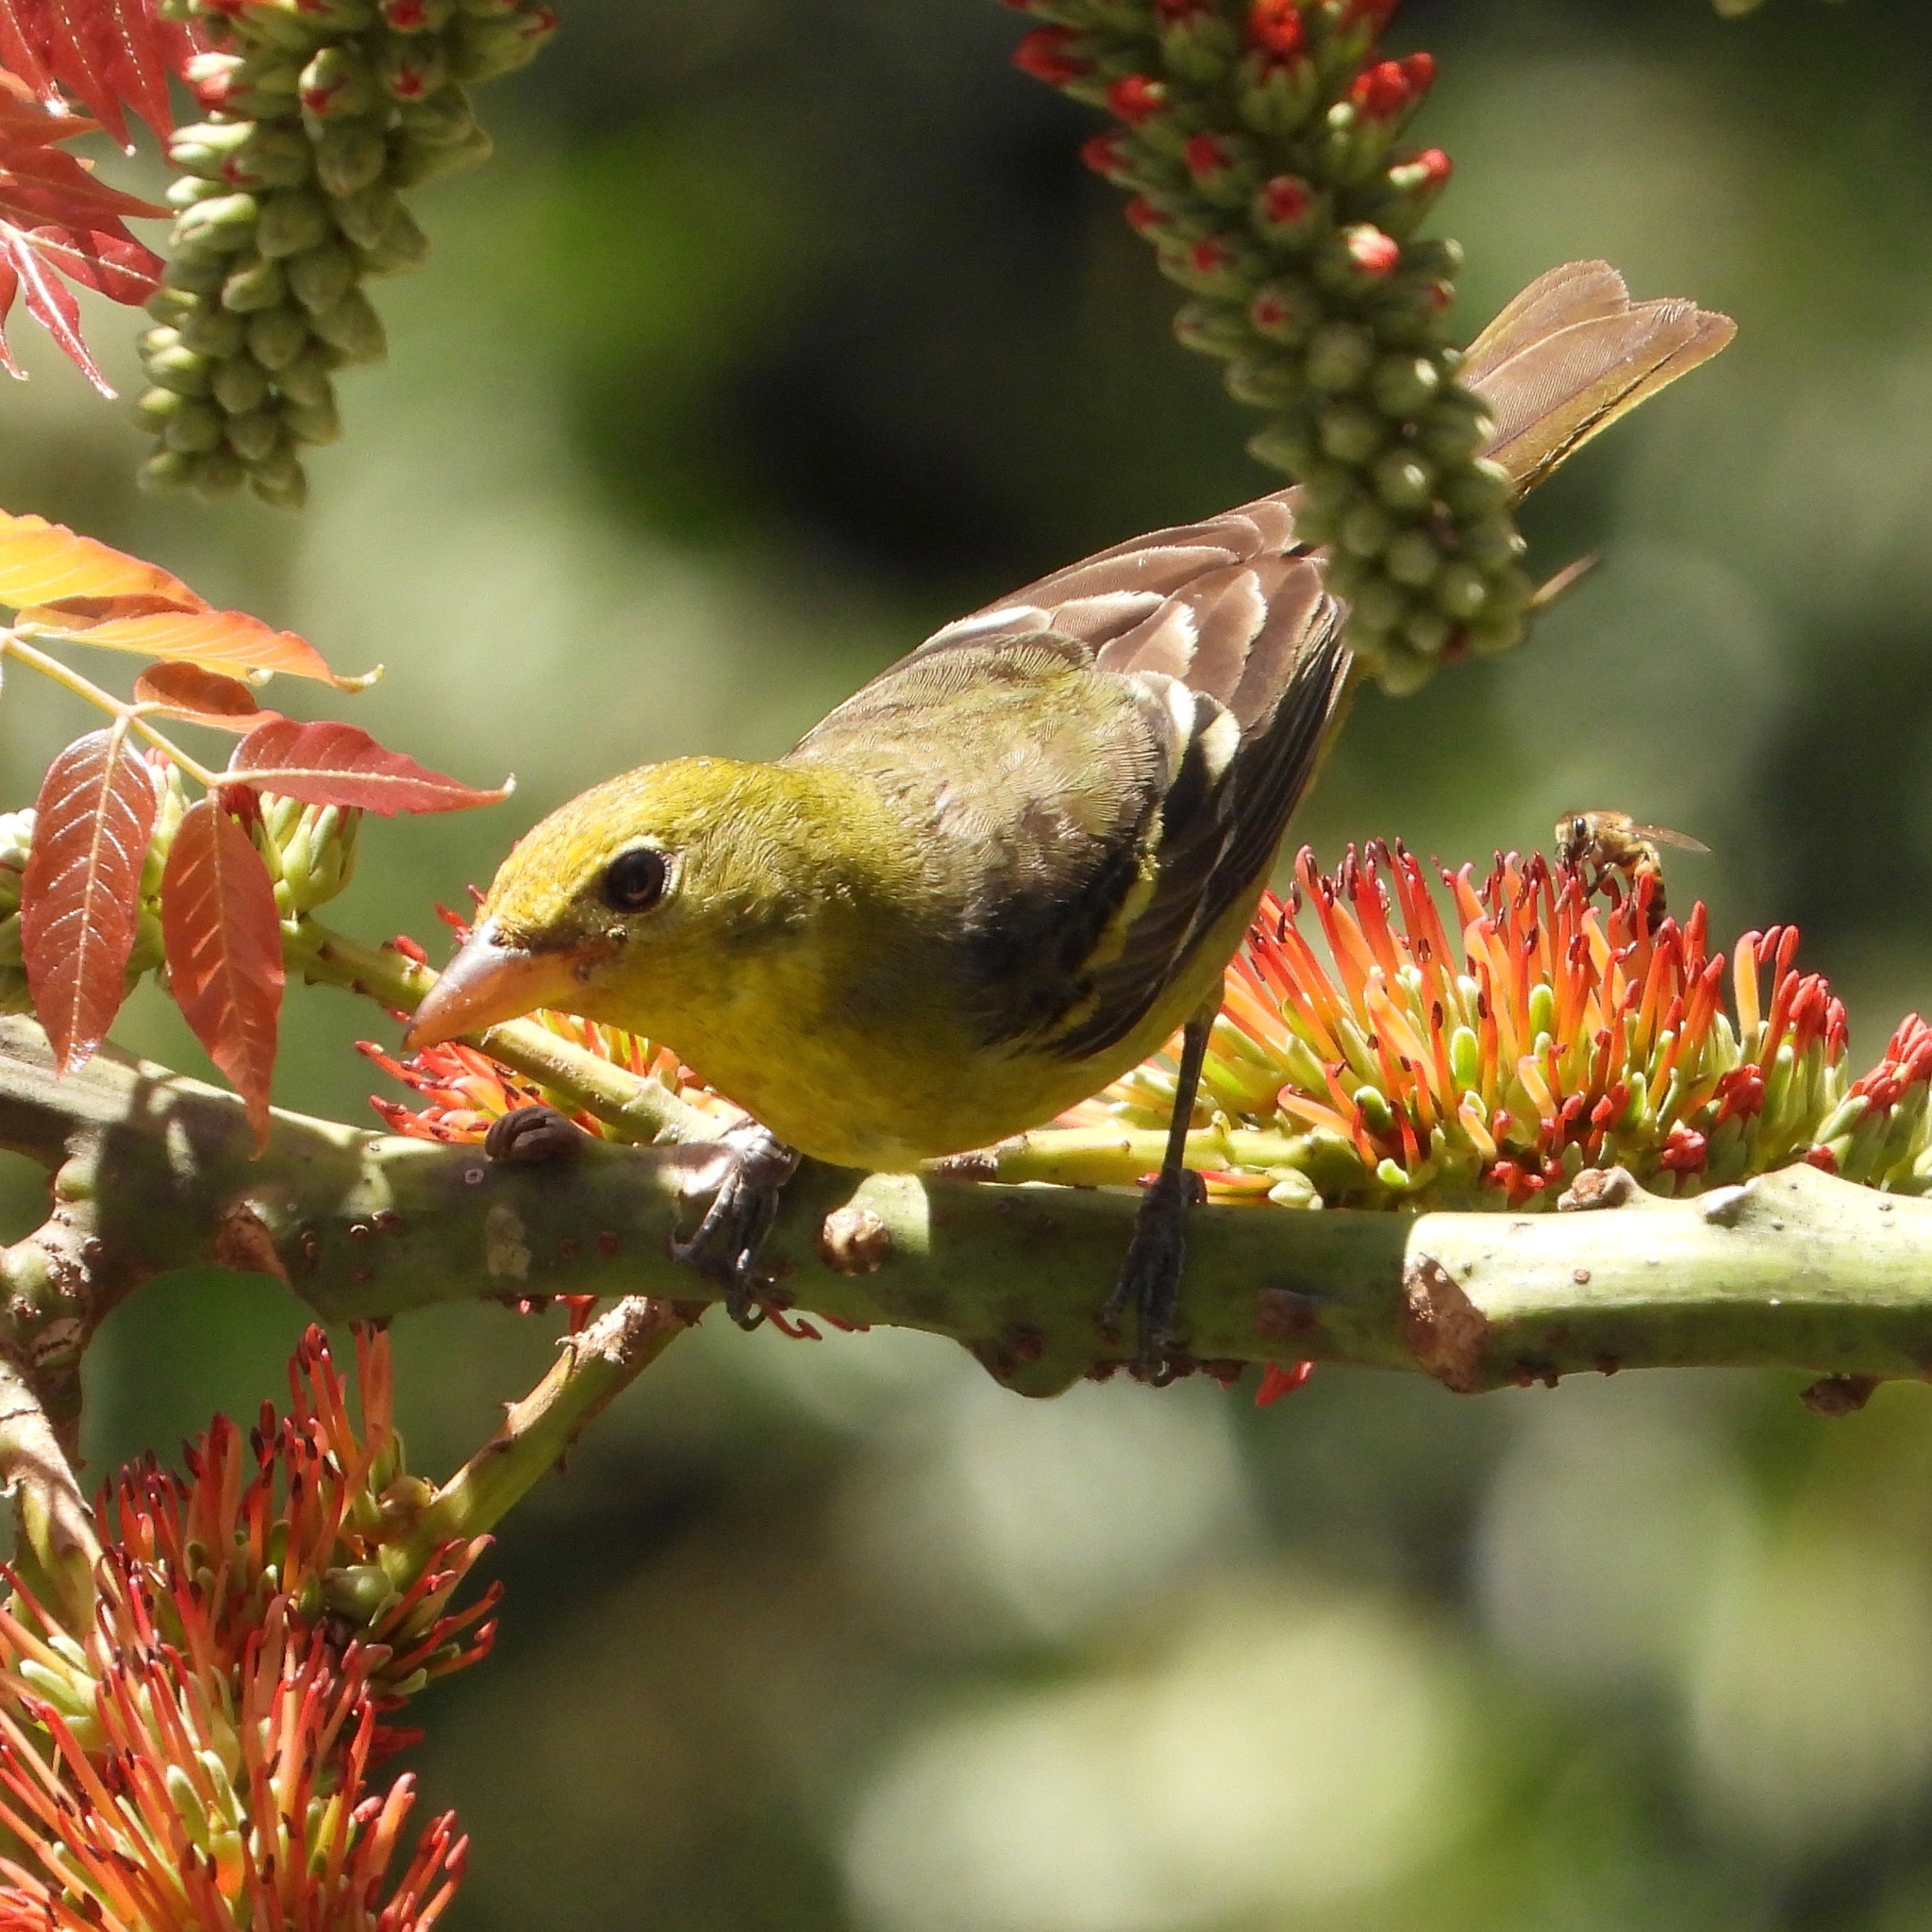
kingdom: Animalia
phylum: Chordata
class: Aves
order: Passeriformes
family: Cardinalidae
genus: Piranga
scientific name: Piranga ludoviciana
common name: Western tanager
